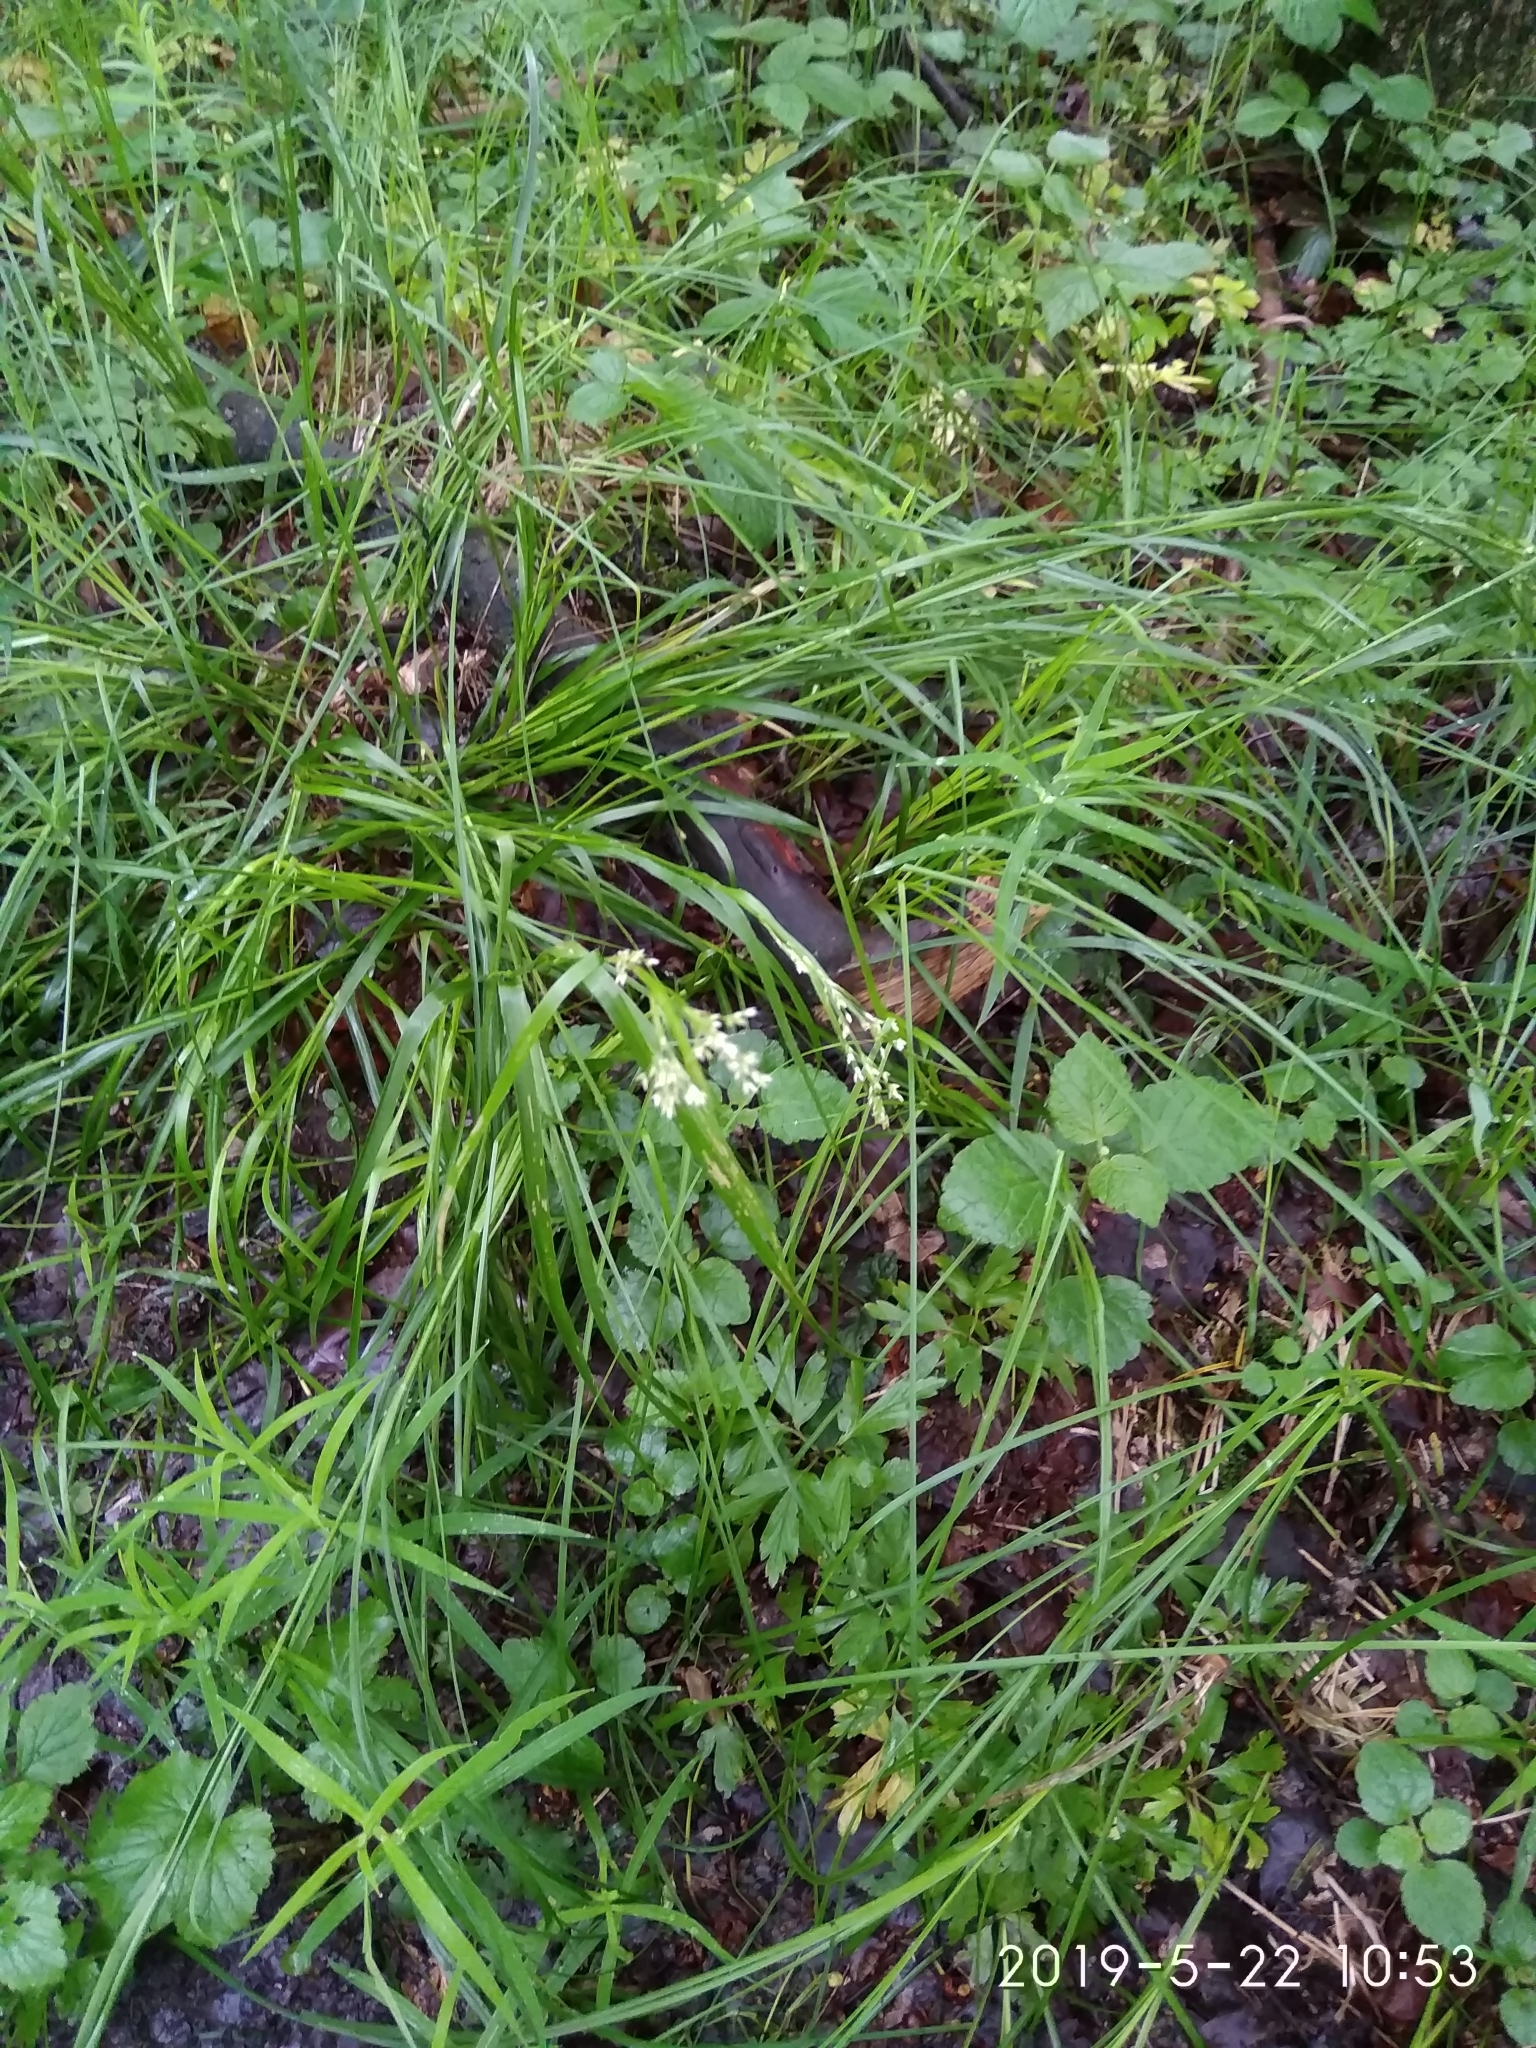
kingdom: Plantae
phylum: Tracheophyta
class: Liliopsida
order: Poales
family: Juncaceae
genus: Luzula
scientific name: Luzula luzuloides
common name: White wood-rush
